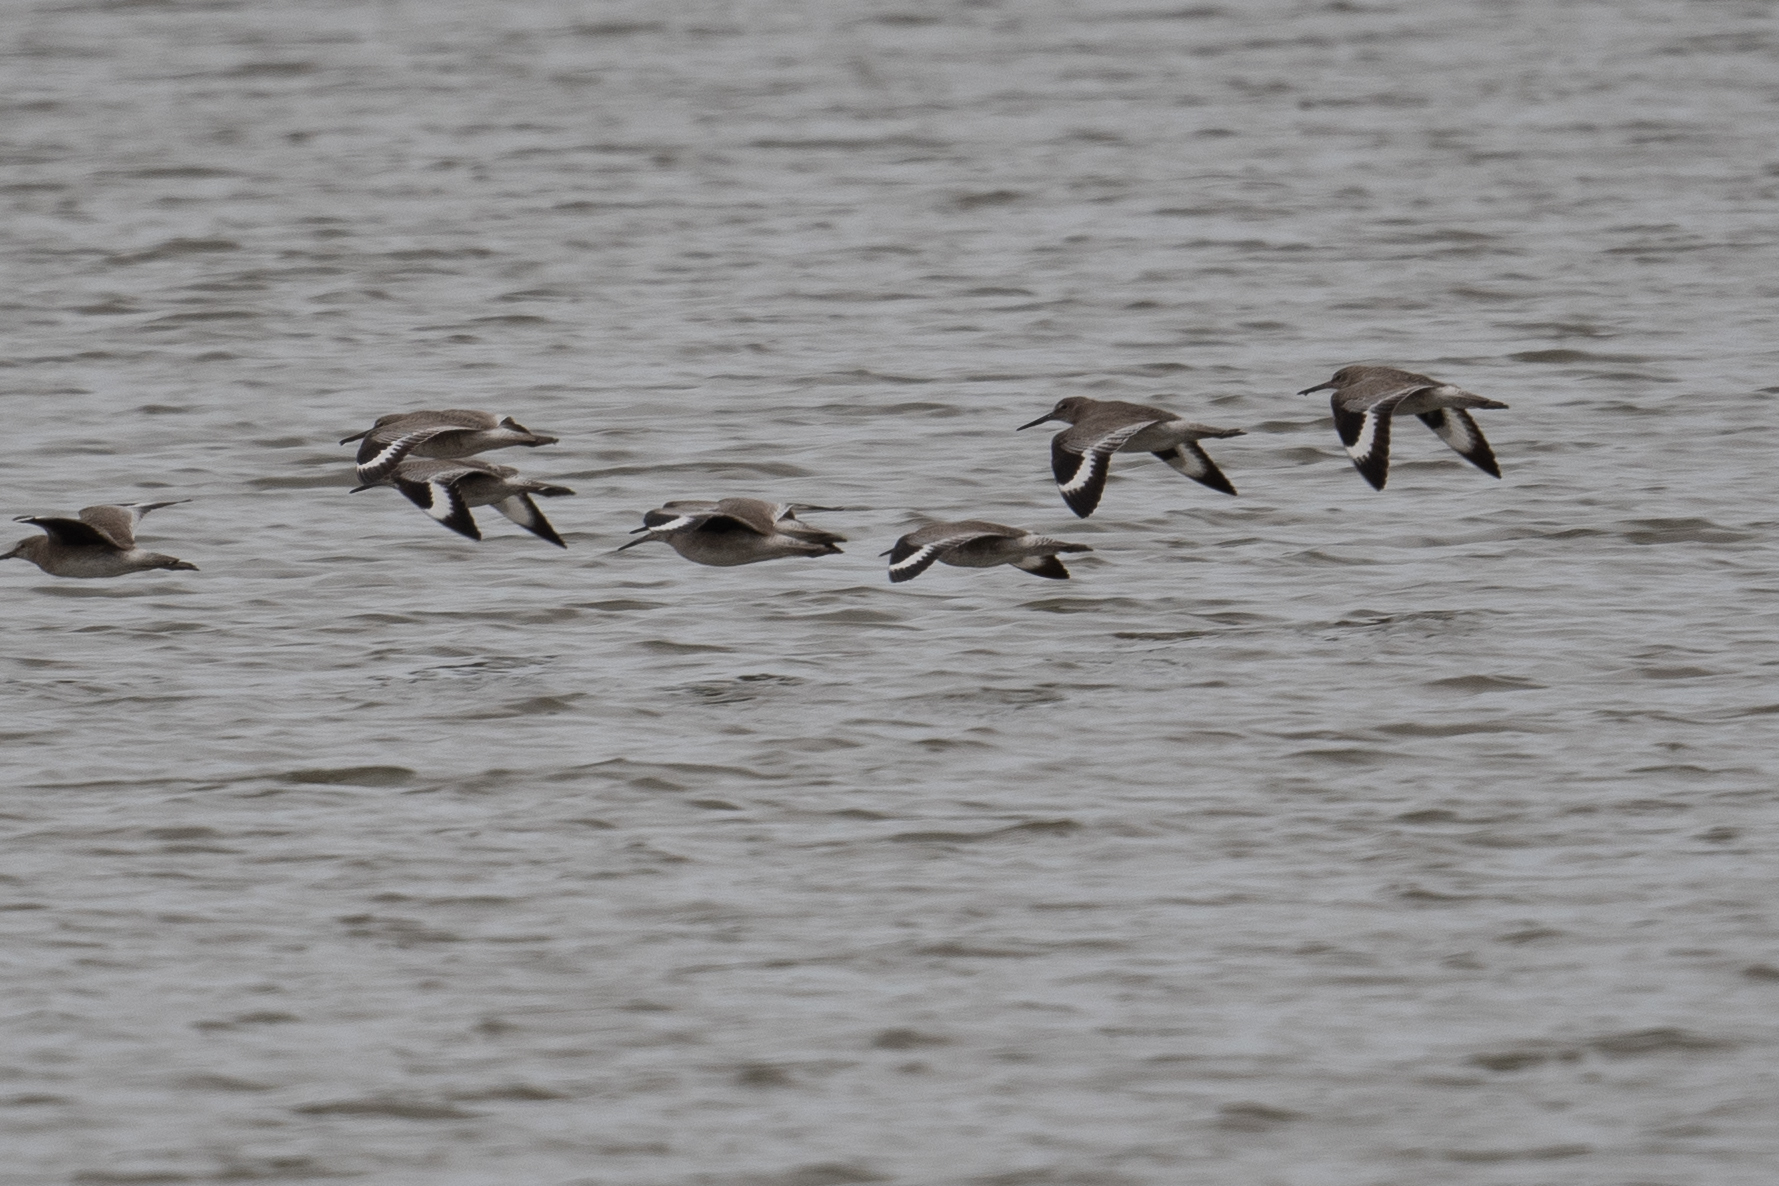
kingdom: Animalia
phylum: Chordata
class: Aves
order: Charadriiformes
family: Scolopacidae
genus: Tringa
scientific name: Tringa semipalmata
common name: Willet
